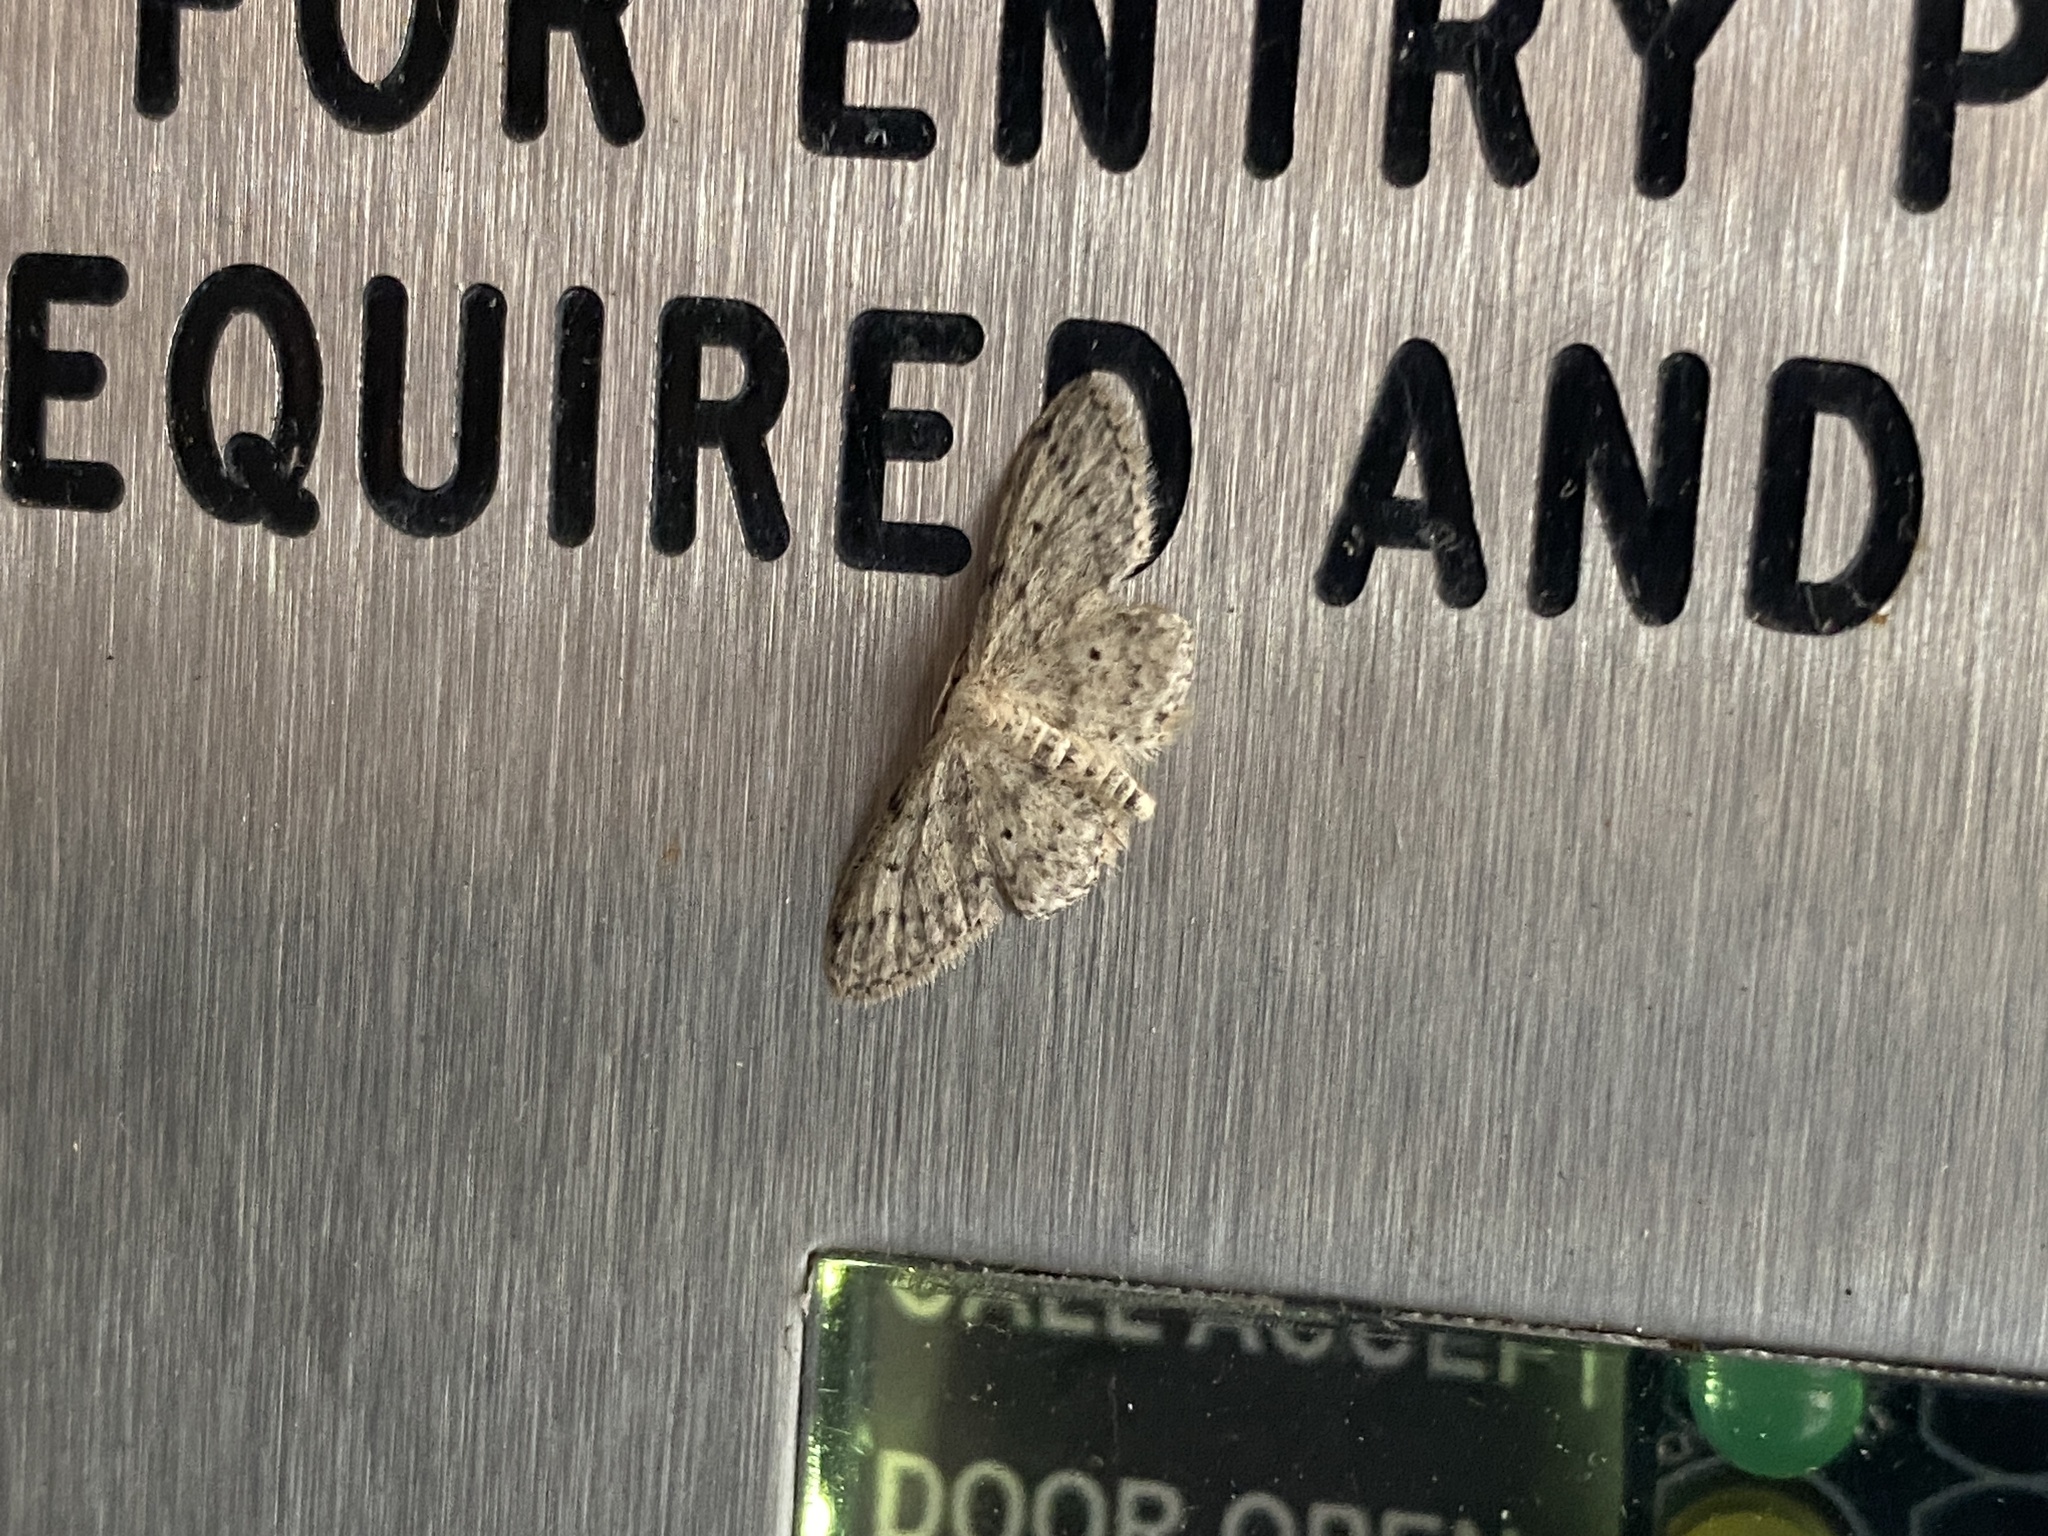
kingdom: Animalia
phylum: Arthropoda
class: Insecta
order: Lepidoptera
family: Geometridae
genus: Idaea
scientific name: Idaea seriata
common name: Small dusty wave
